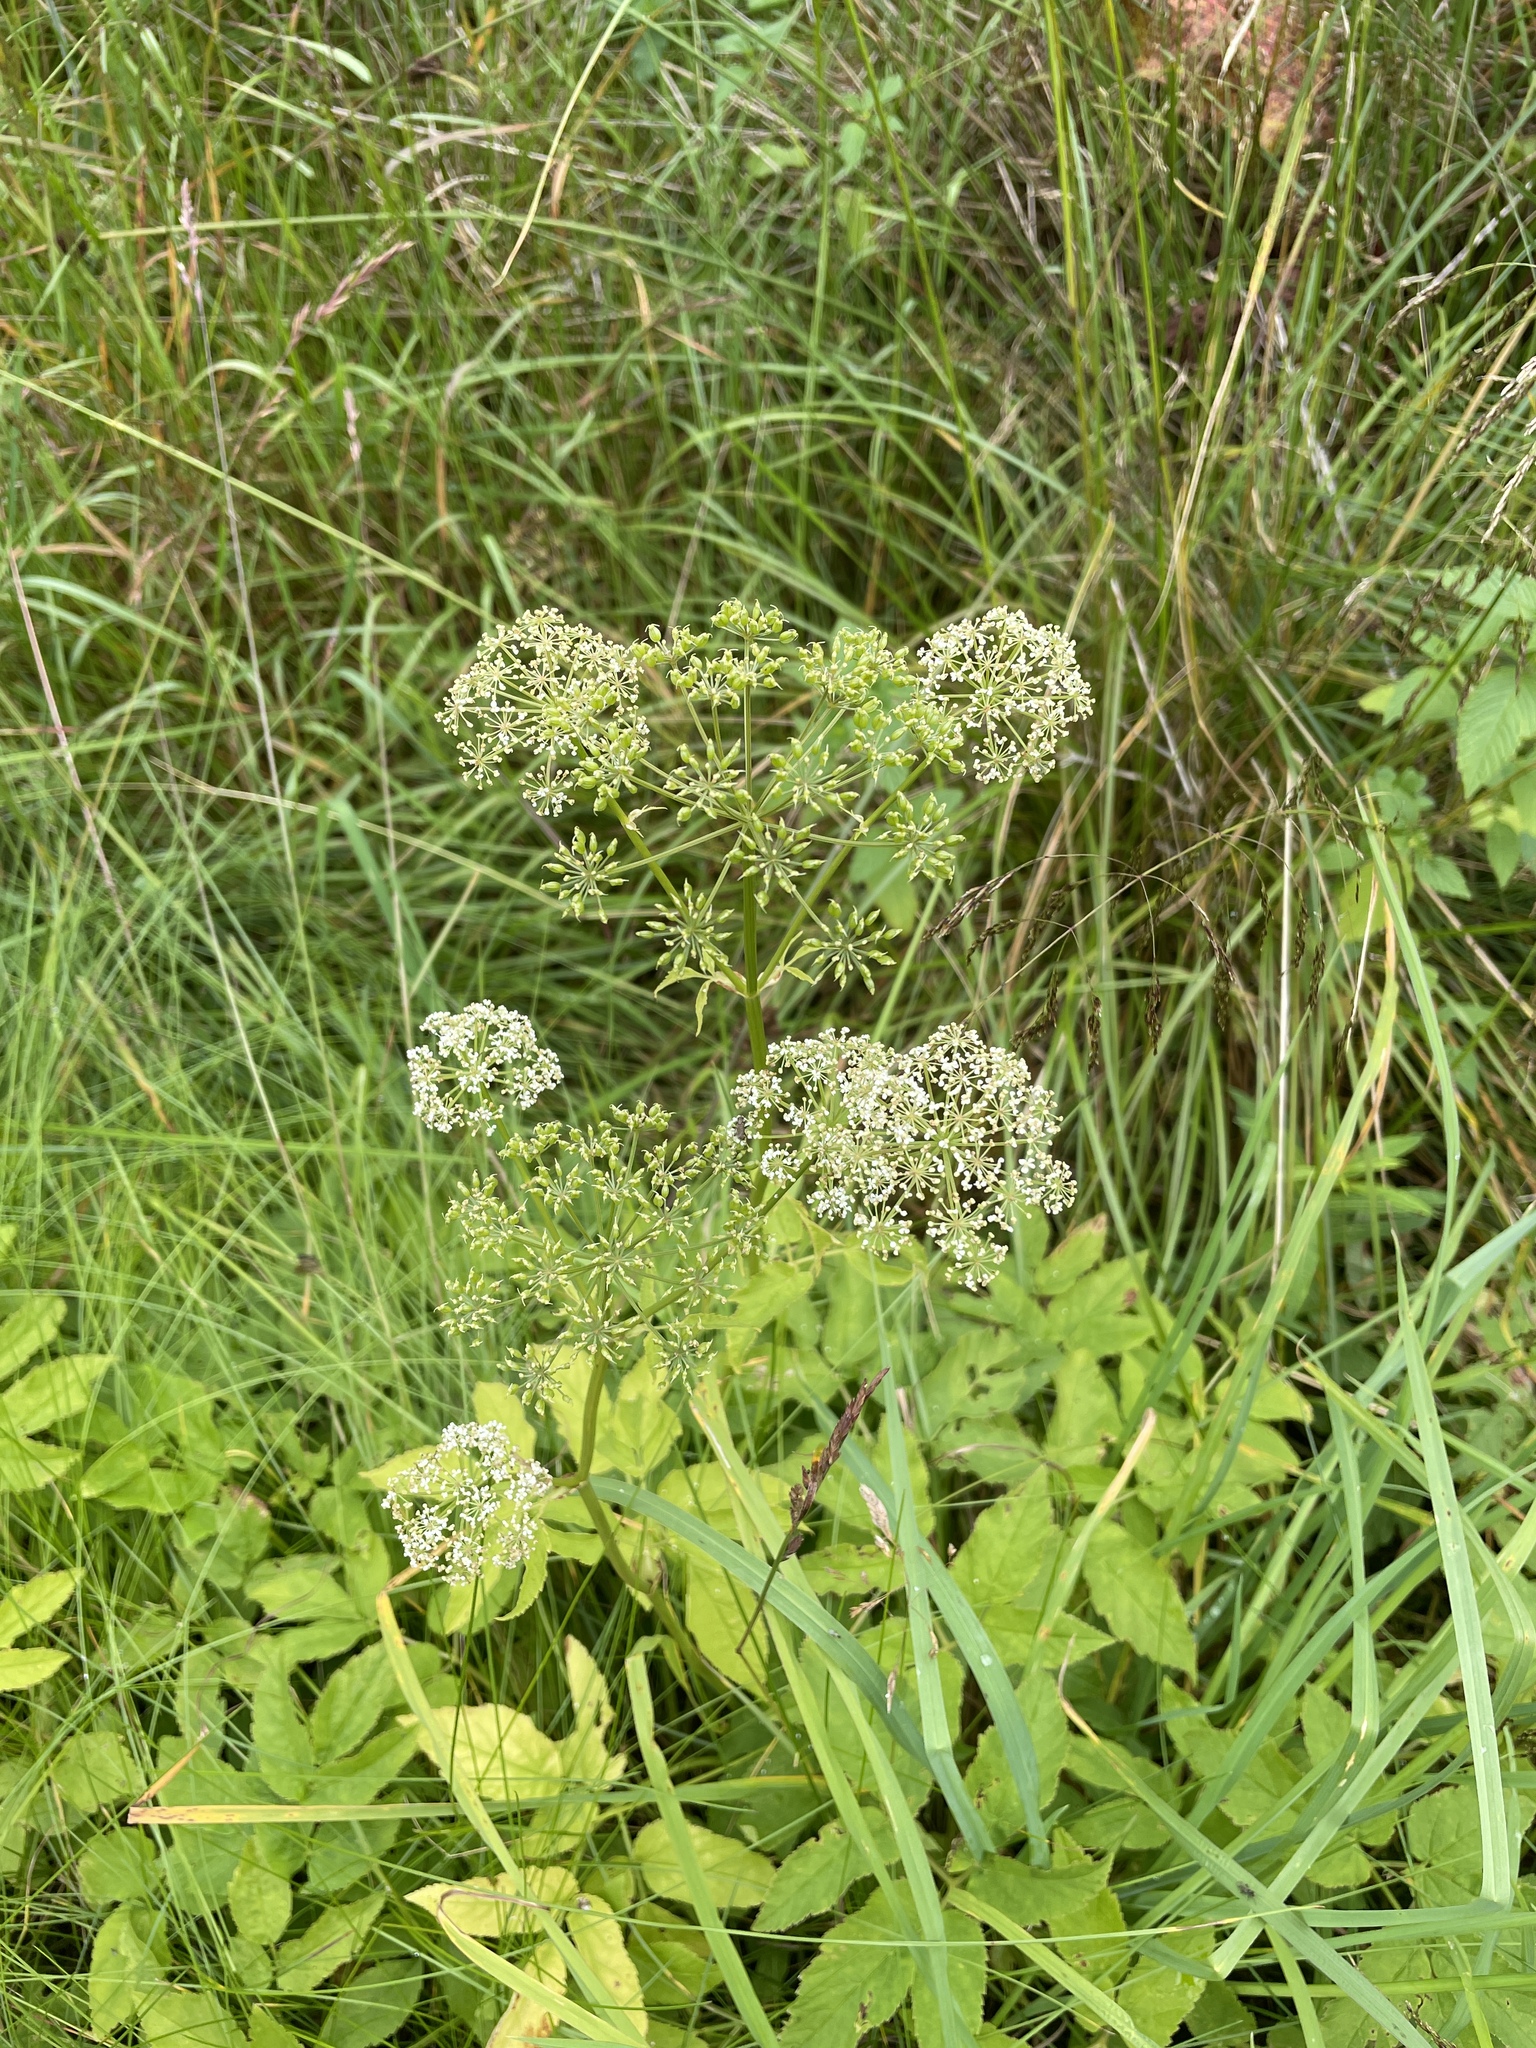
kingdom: Plantae
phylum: Tracheophyta
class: Magnoliopsida
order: Apiales
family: Apiaceae
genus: Aegopodium
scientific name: Aegopodium podagraria
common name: Ground-elder
